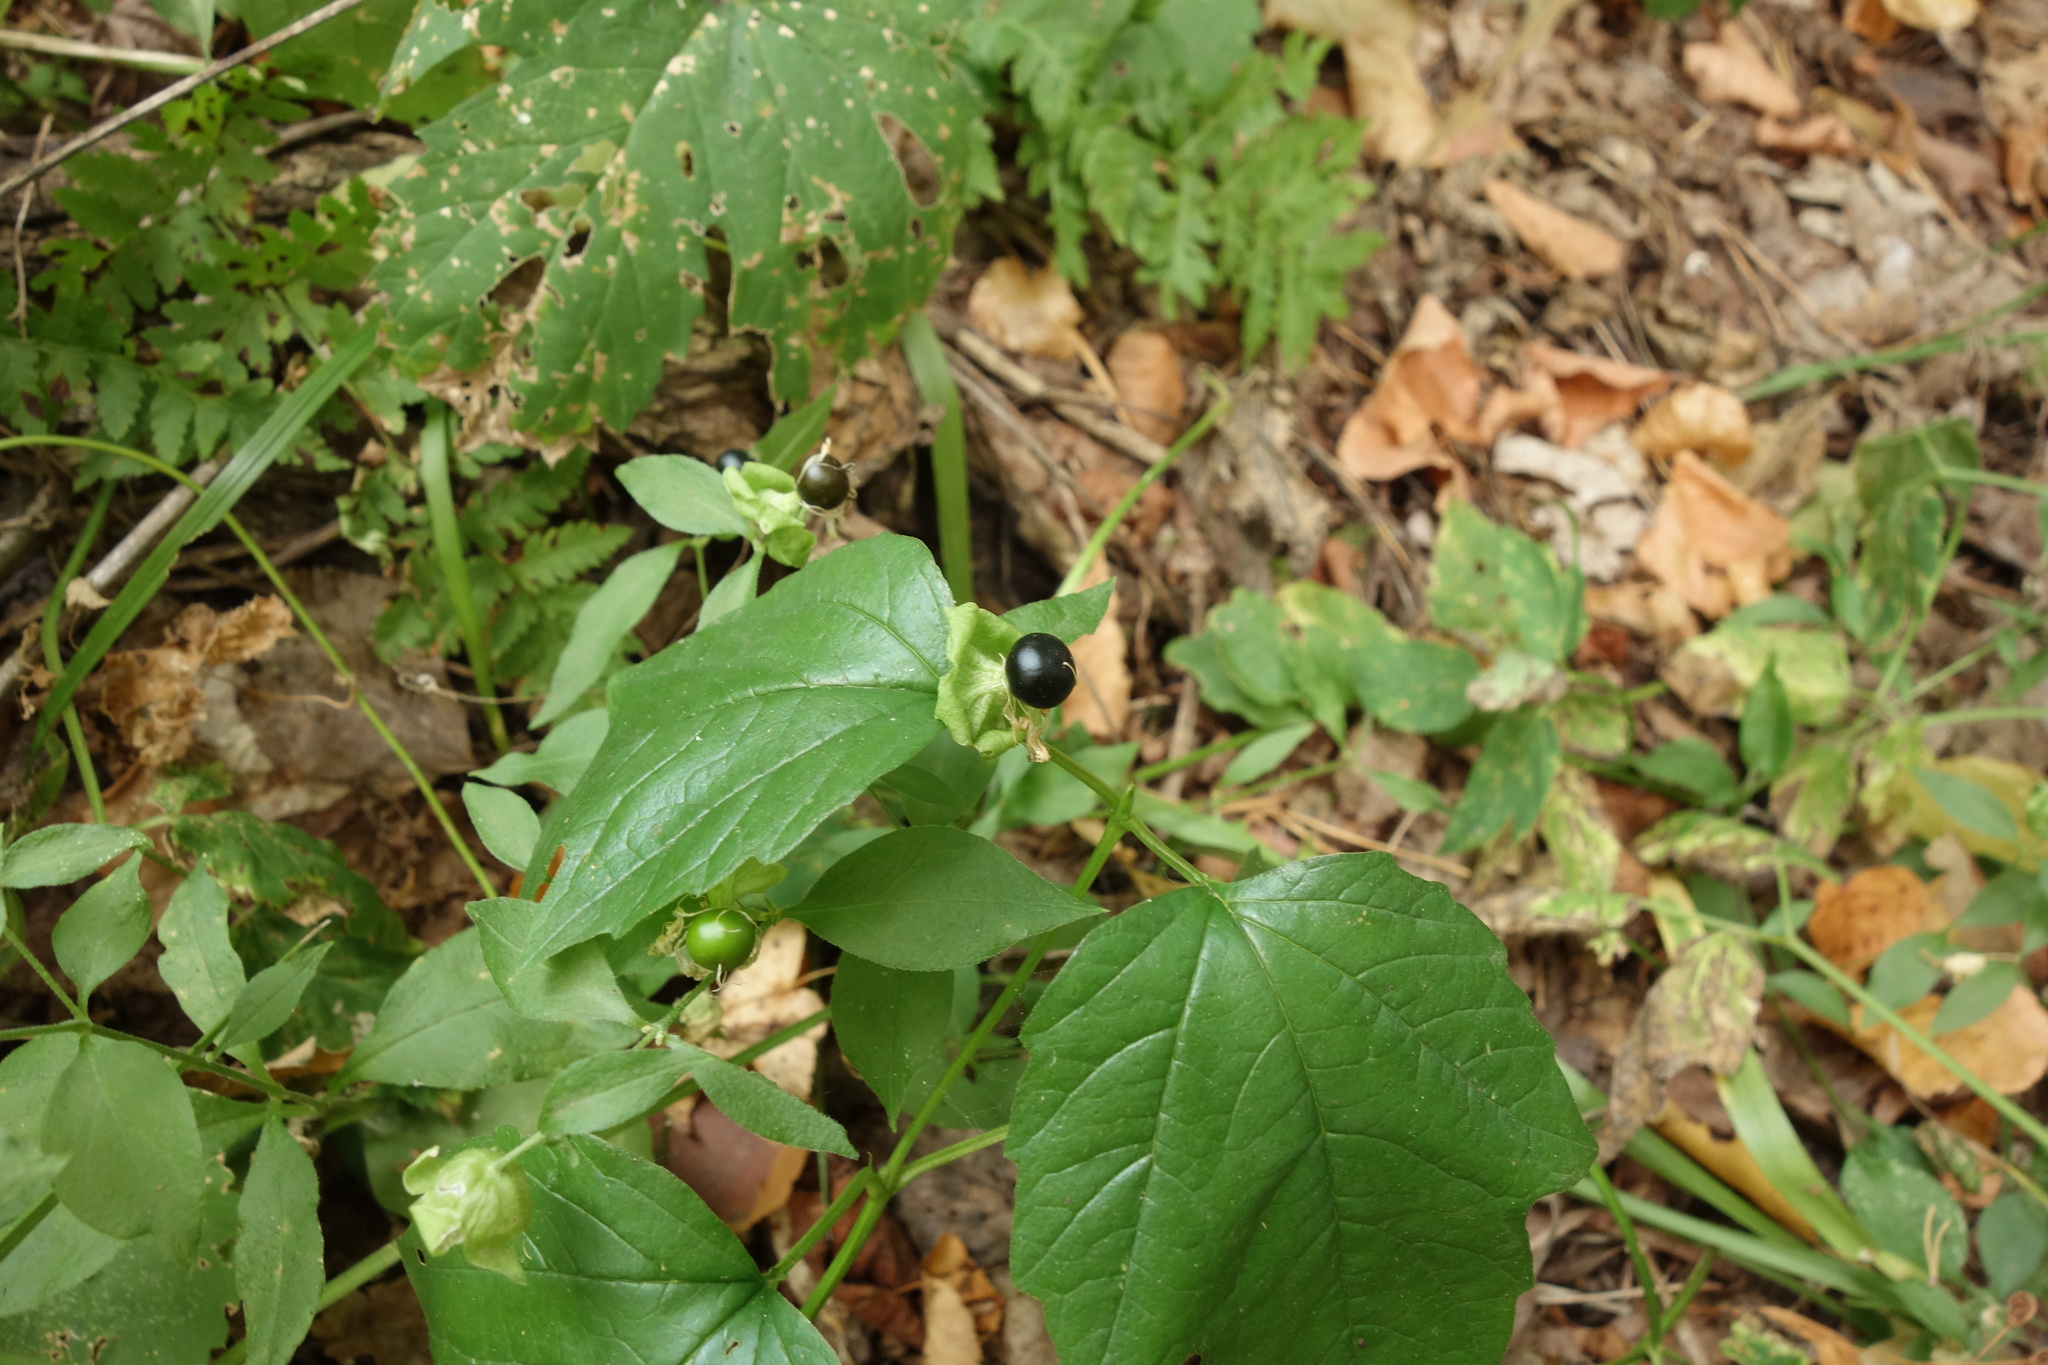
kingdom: Plantae
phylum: Tracheophyta
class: Magnoliopsida
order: Caryophyllales
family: Caryophyllaceae
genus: Silene
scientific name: Silene baccifera
